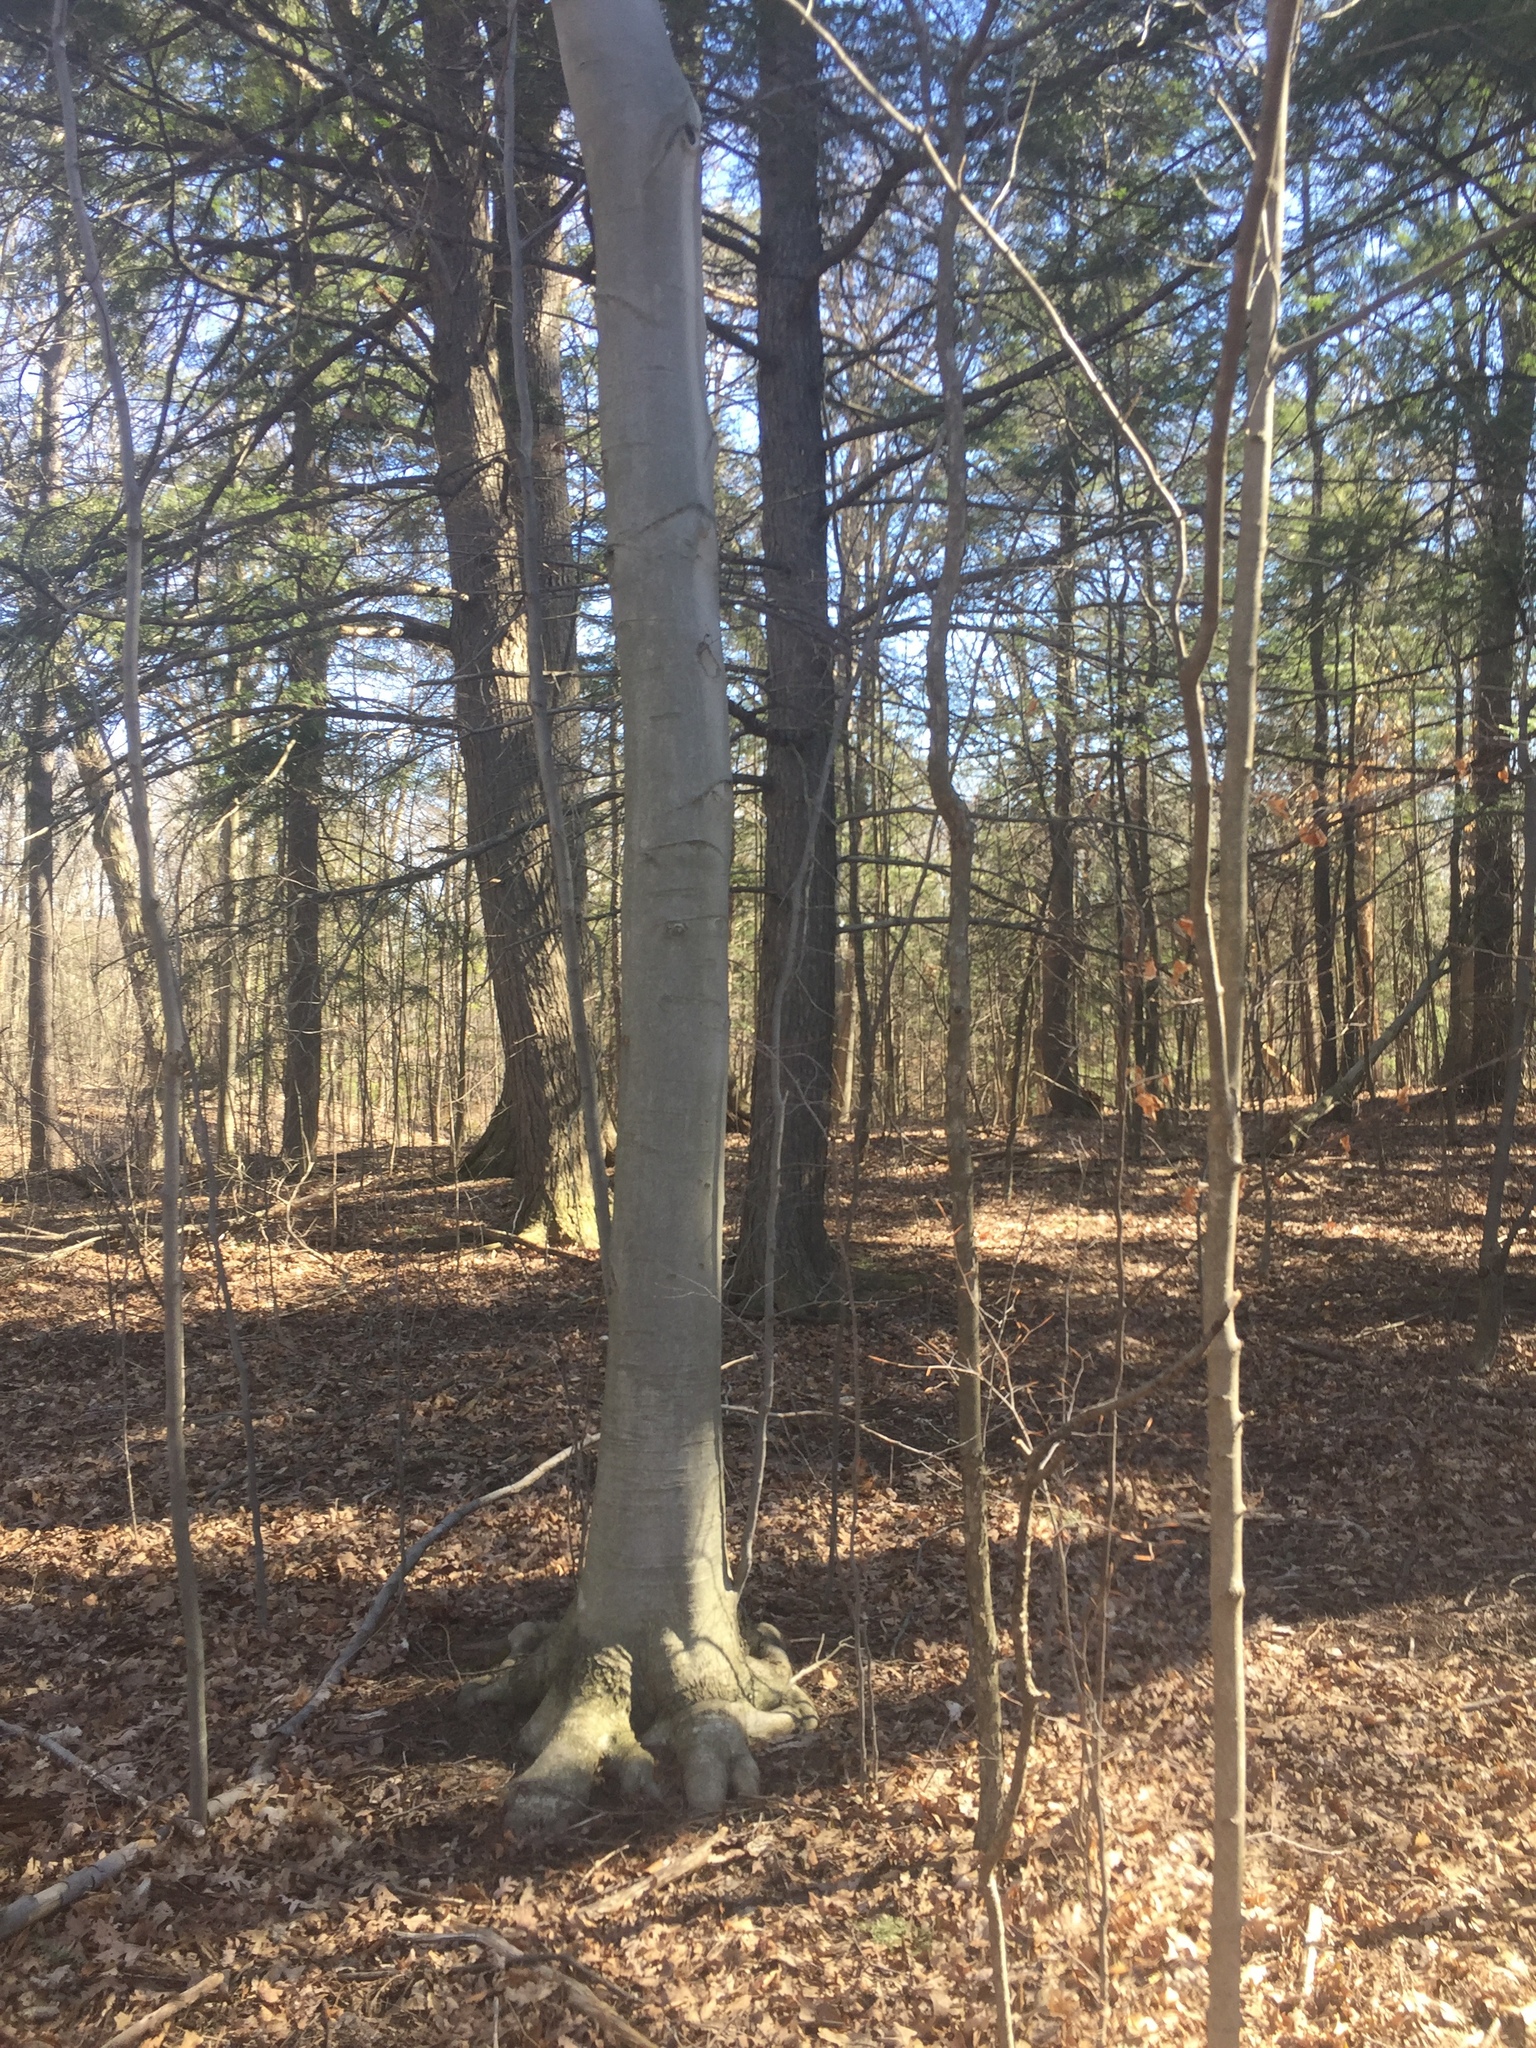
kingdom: Plantae
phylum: Tracheophyta
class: Magnoliopsida
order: Fagales
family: Fagaceae
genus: Fagus
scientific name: Fagus grandifolia
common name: American beech
